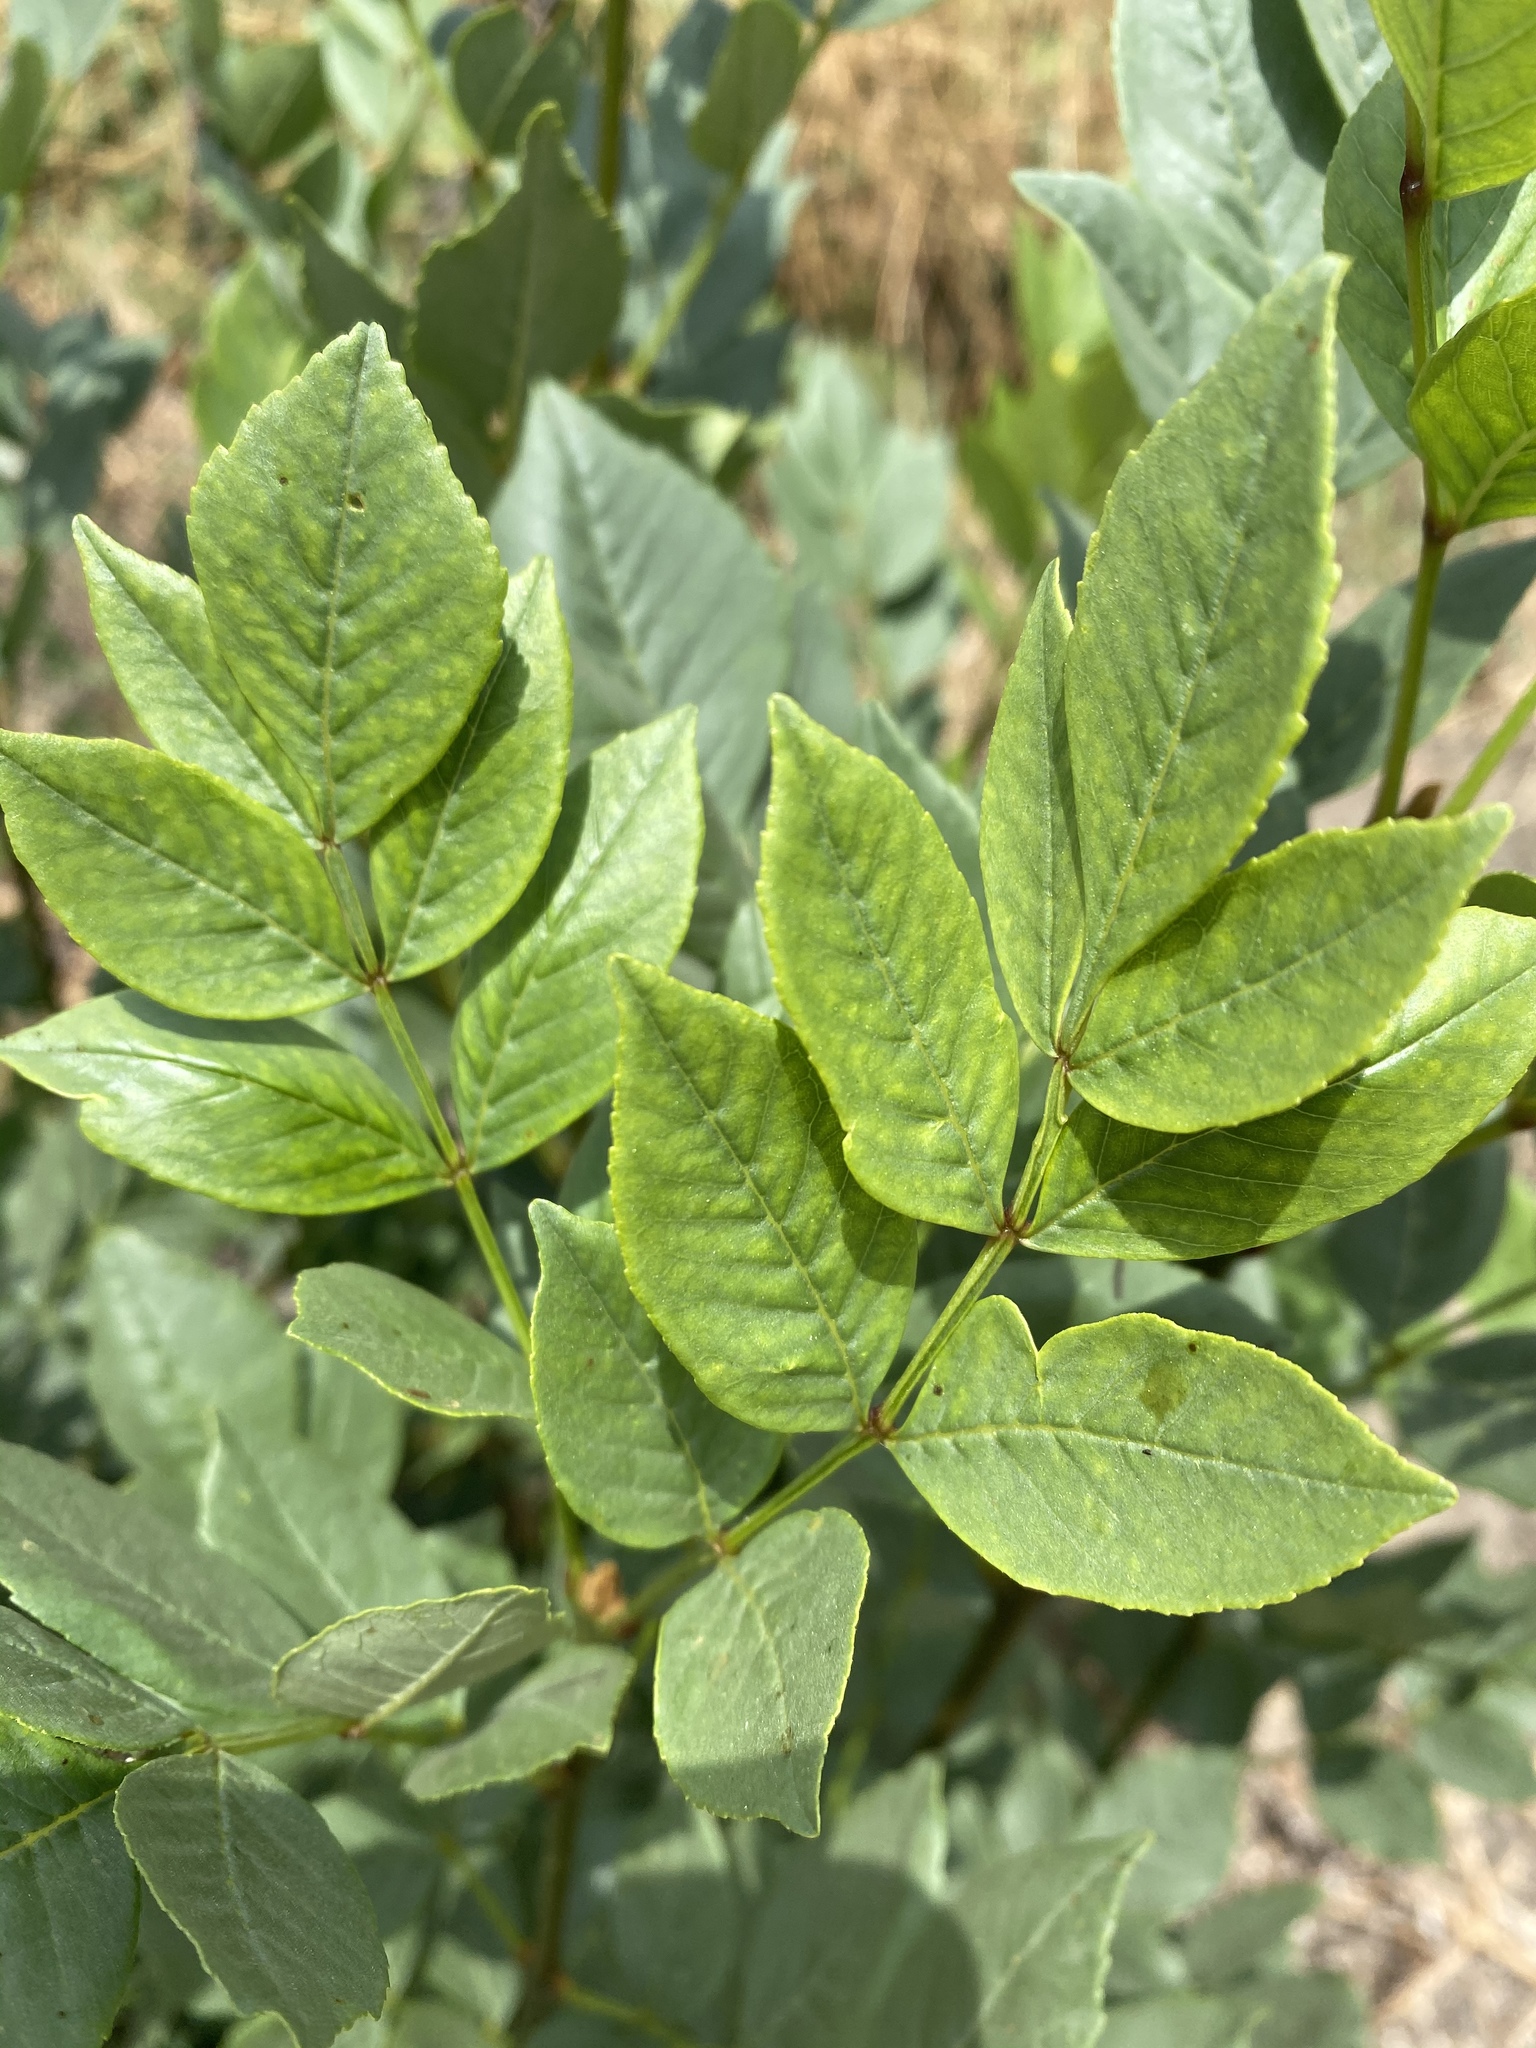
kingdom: Plantae
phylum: Tracheophyta
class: Magnoliopsida
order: Lamiales
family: Oleaceae
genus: Fraxinus
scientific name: Fraxinus uhdei
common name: Shamel ash
